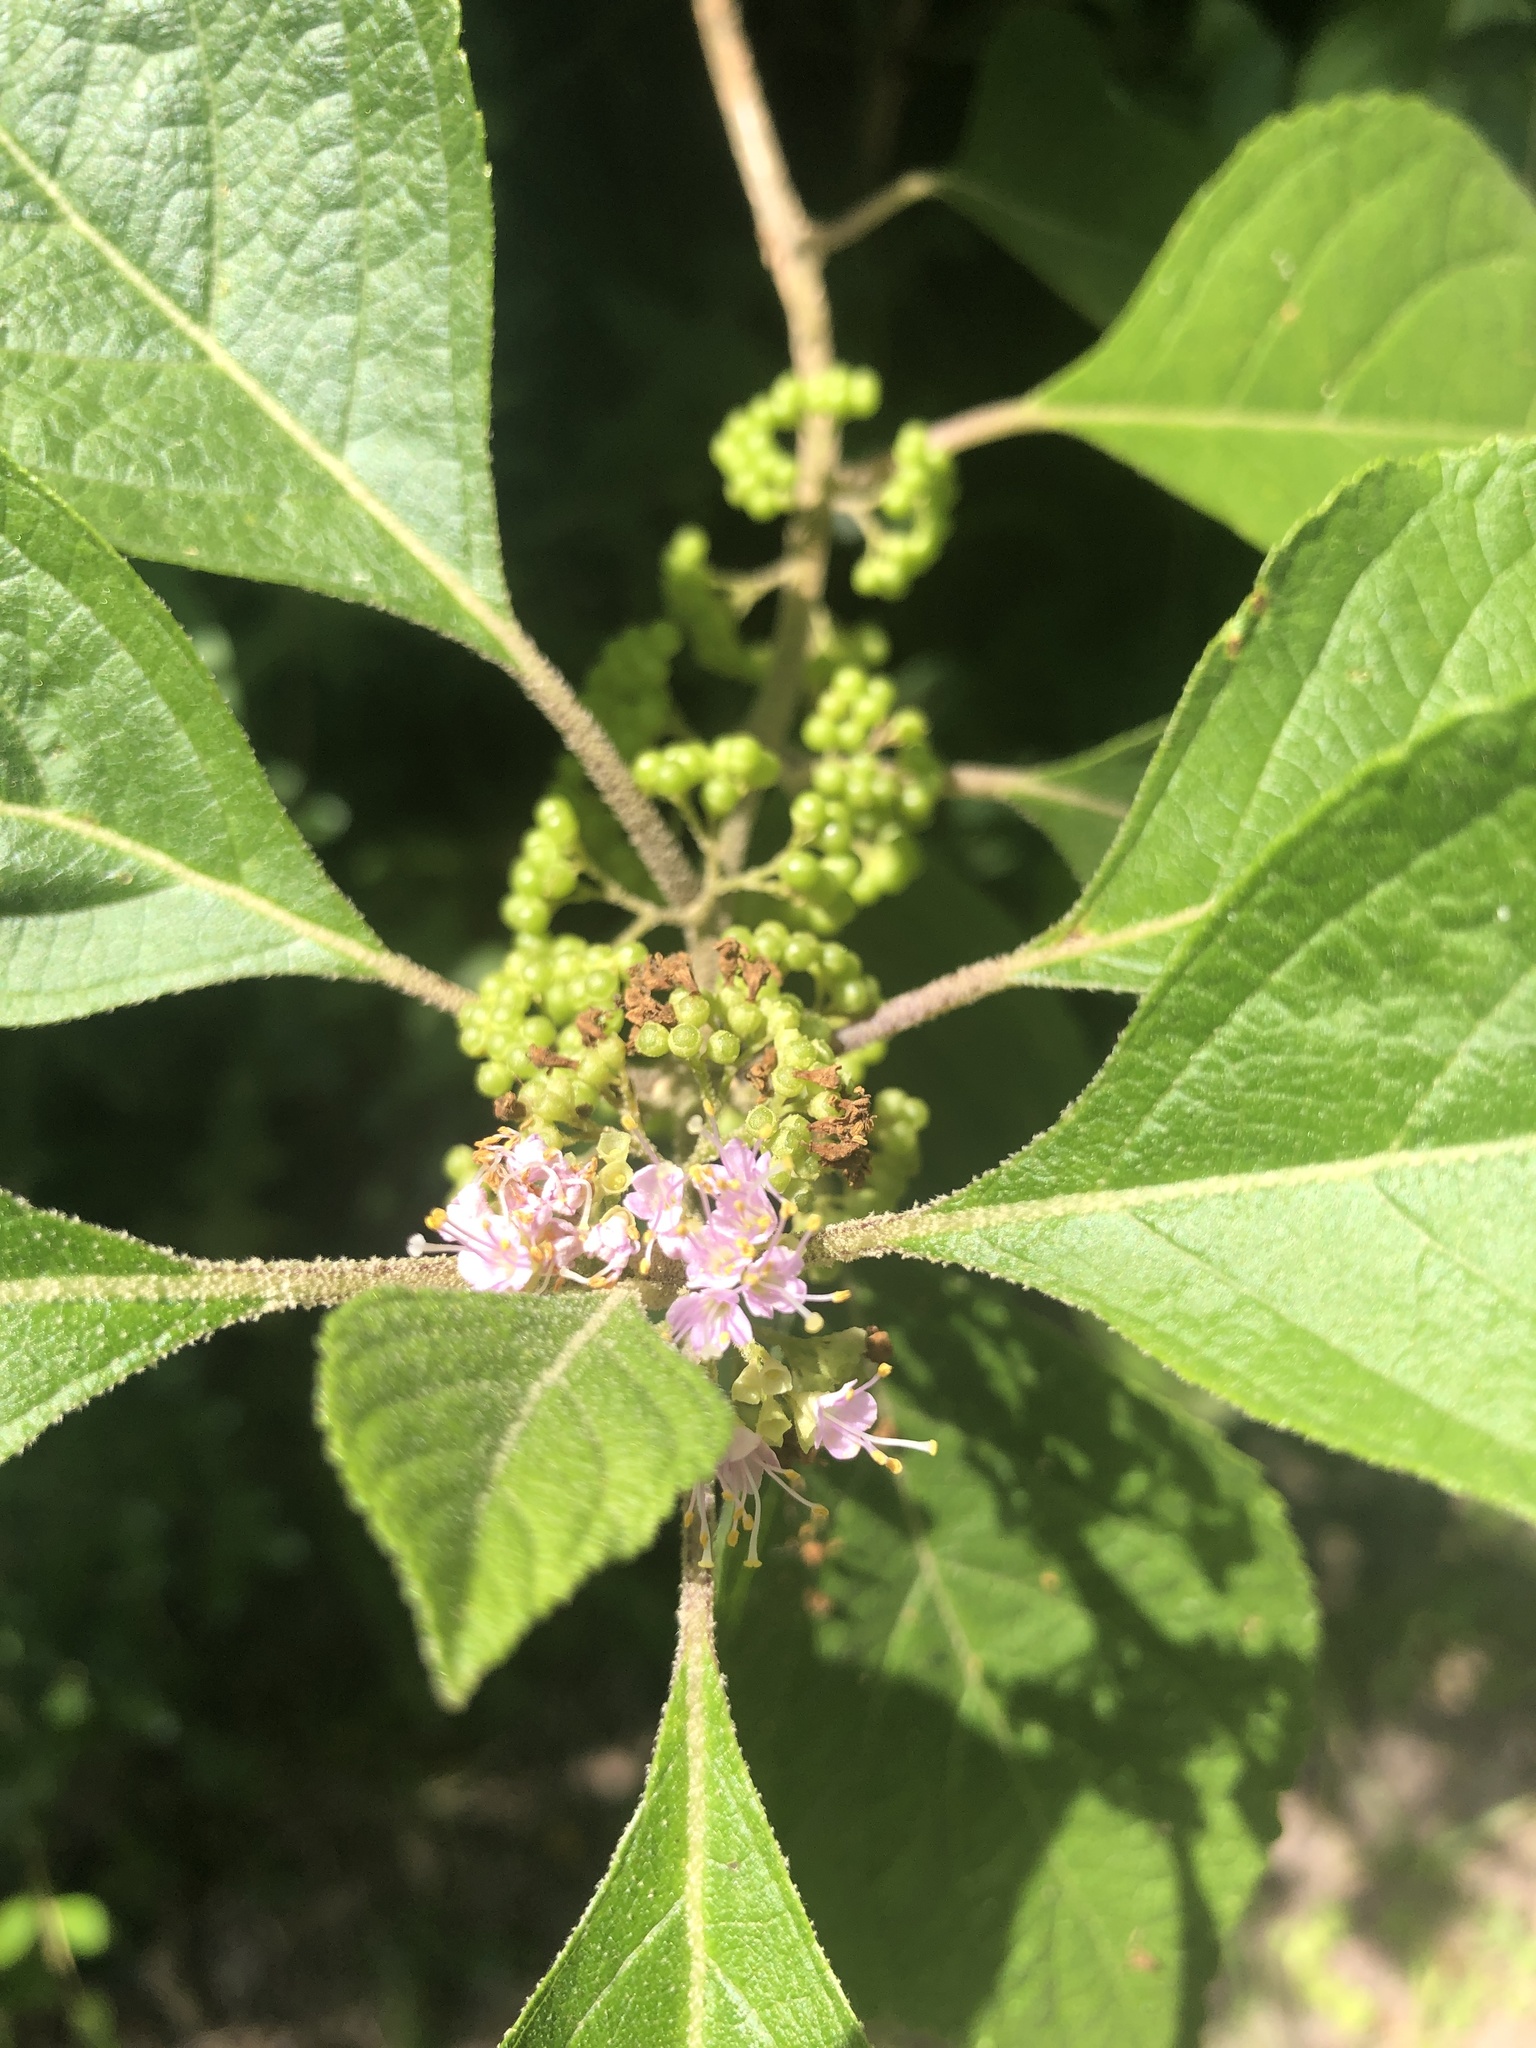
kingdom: Plantae
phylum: Tracheophyta
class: Magnoliopsida
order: Lamiales
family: Lamiaceae
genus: Callicarpa
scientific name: Callicarpa americana
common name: American beautyberry
